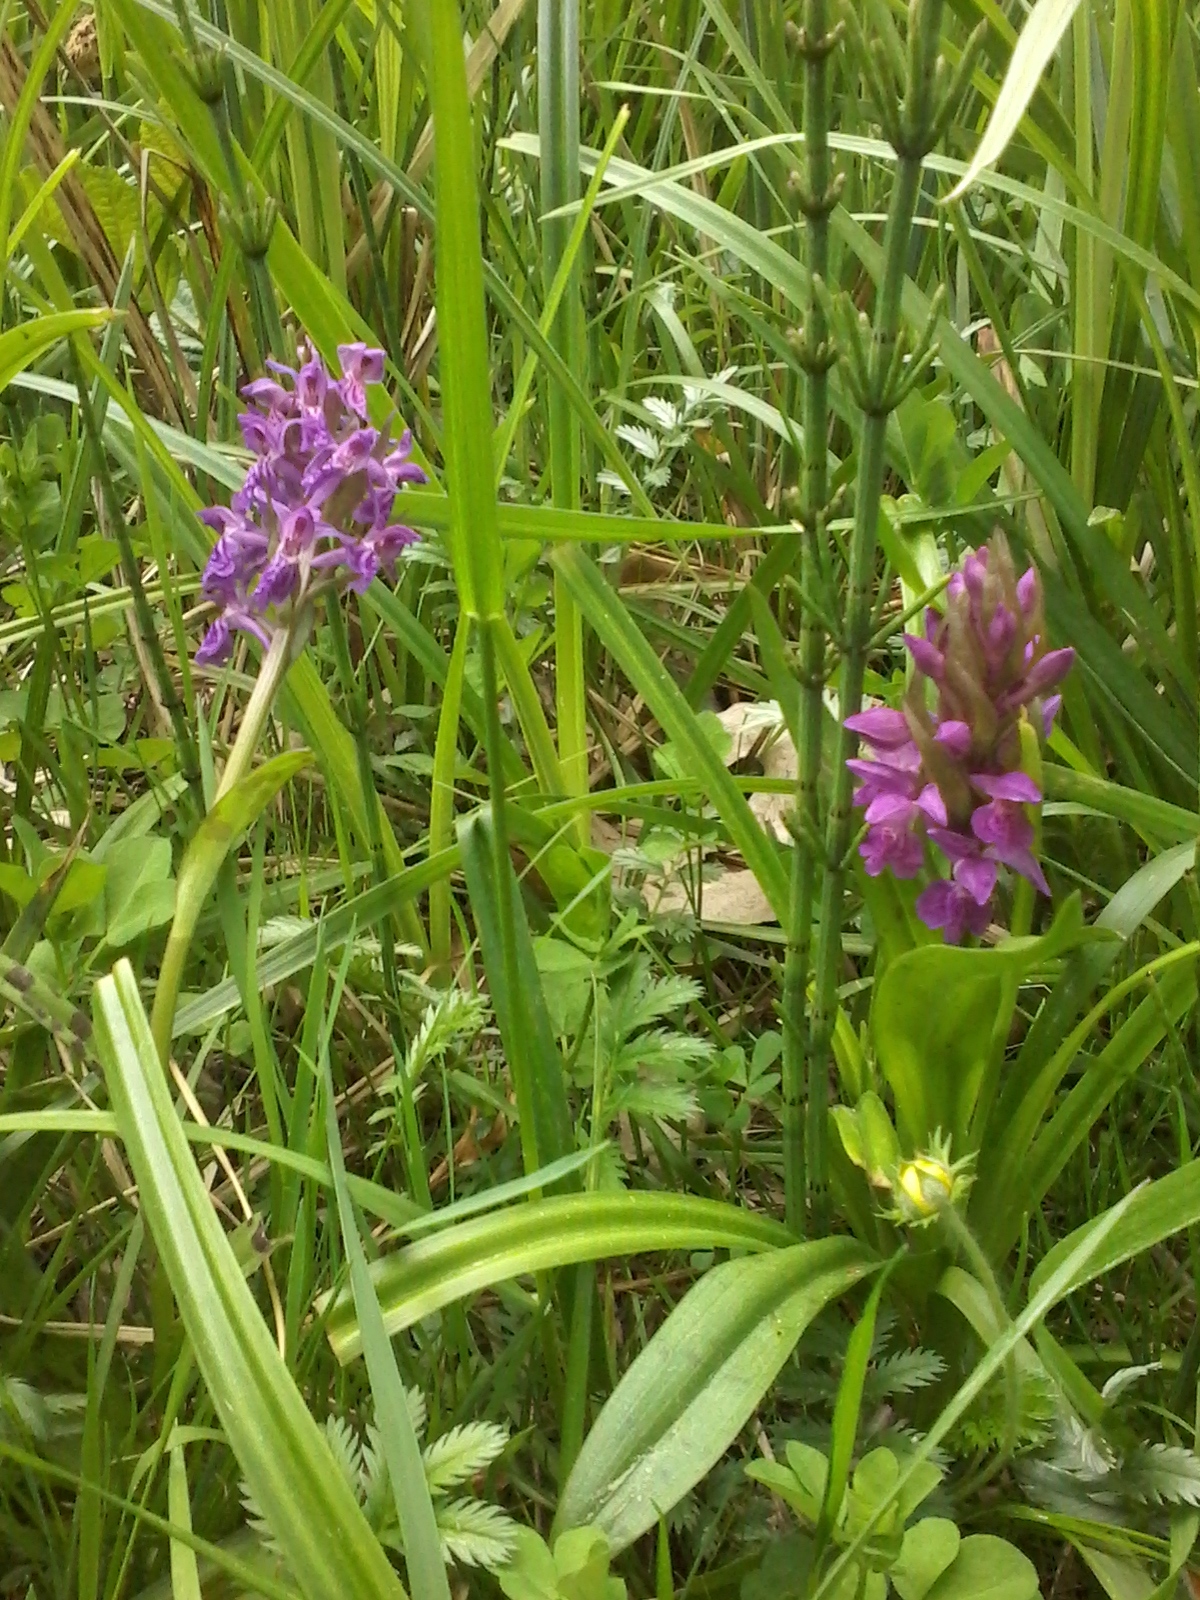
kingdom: Plantae
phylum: Tracheophyta
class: Liliopsida
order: Asparagales
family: Orchidaceae
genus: Dactylorhiza
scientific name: Dactylorhiza incarnata
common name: Early marsh-orchid
